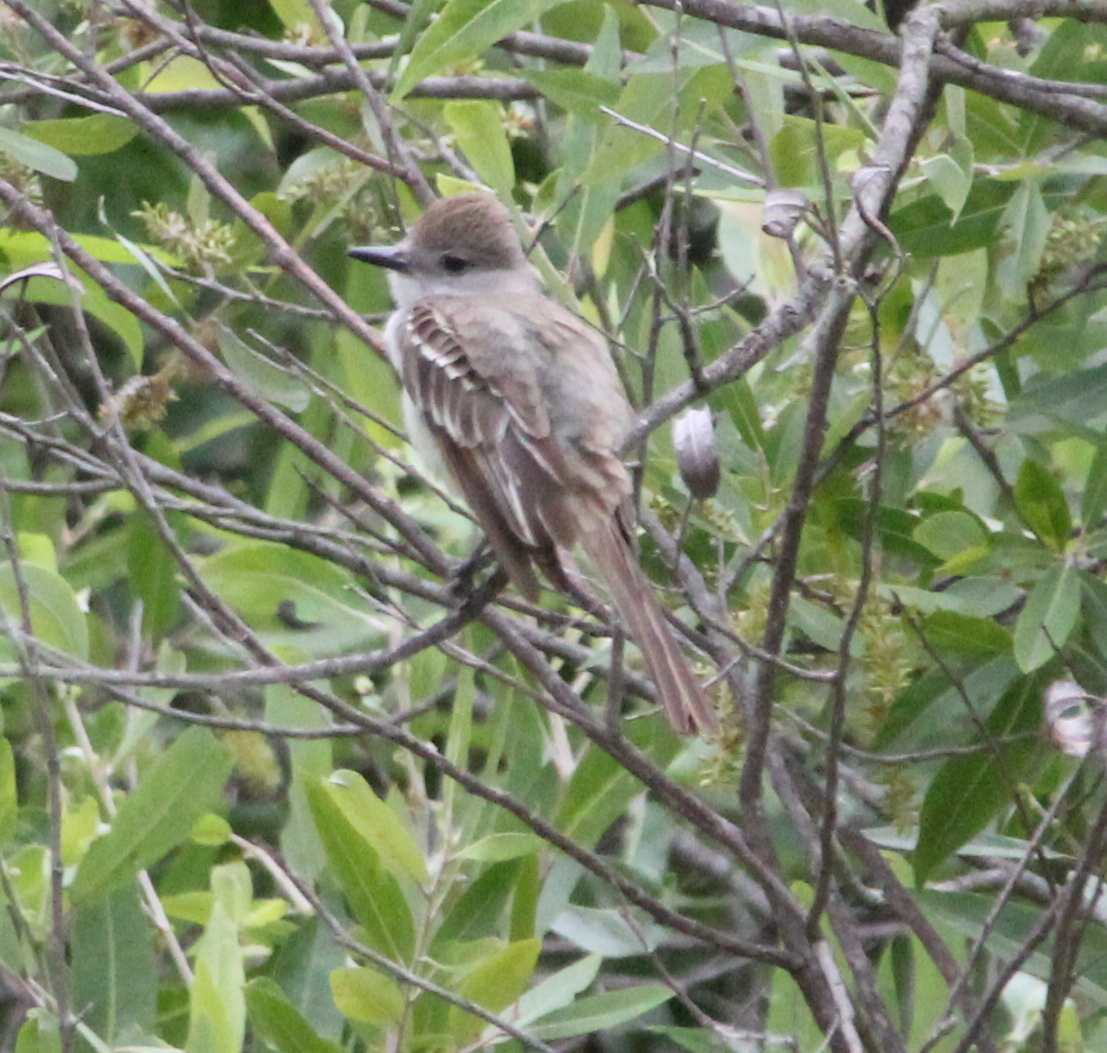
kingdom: Animalia
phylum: Chordata
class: Aves
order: Passeriformes
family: Tyrannidae
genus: Myiarchus
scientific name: Myiarchus cinerascens
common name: Ash-throated flycatcher
